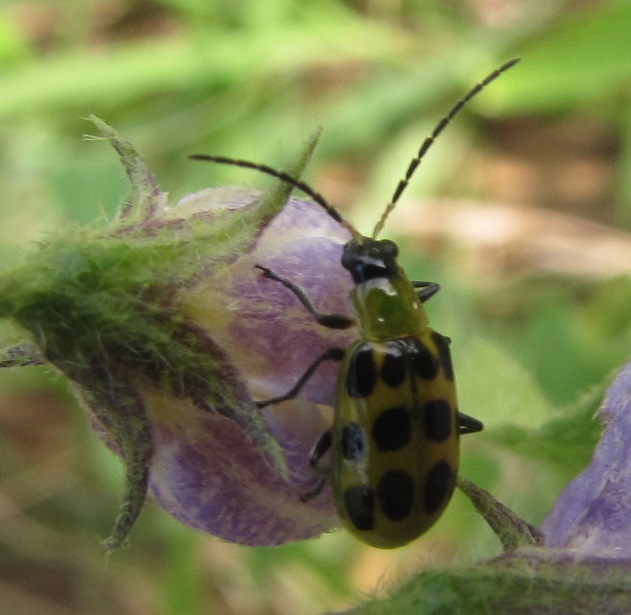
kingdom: Animalia
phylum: Arthropoda
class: Insecta
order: Coleoptera
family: Chrysomelidae
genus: Diabrotica
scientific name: Diabrotica undecimpunctata
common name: Spotted cucumber beetle
